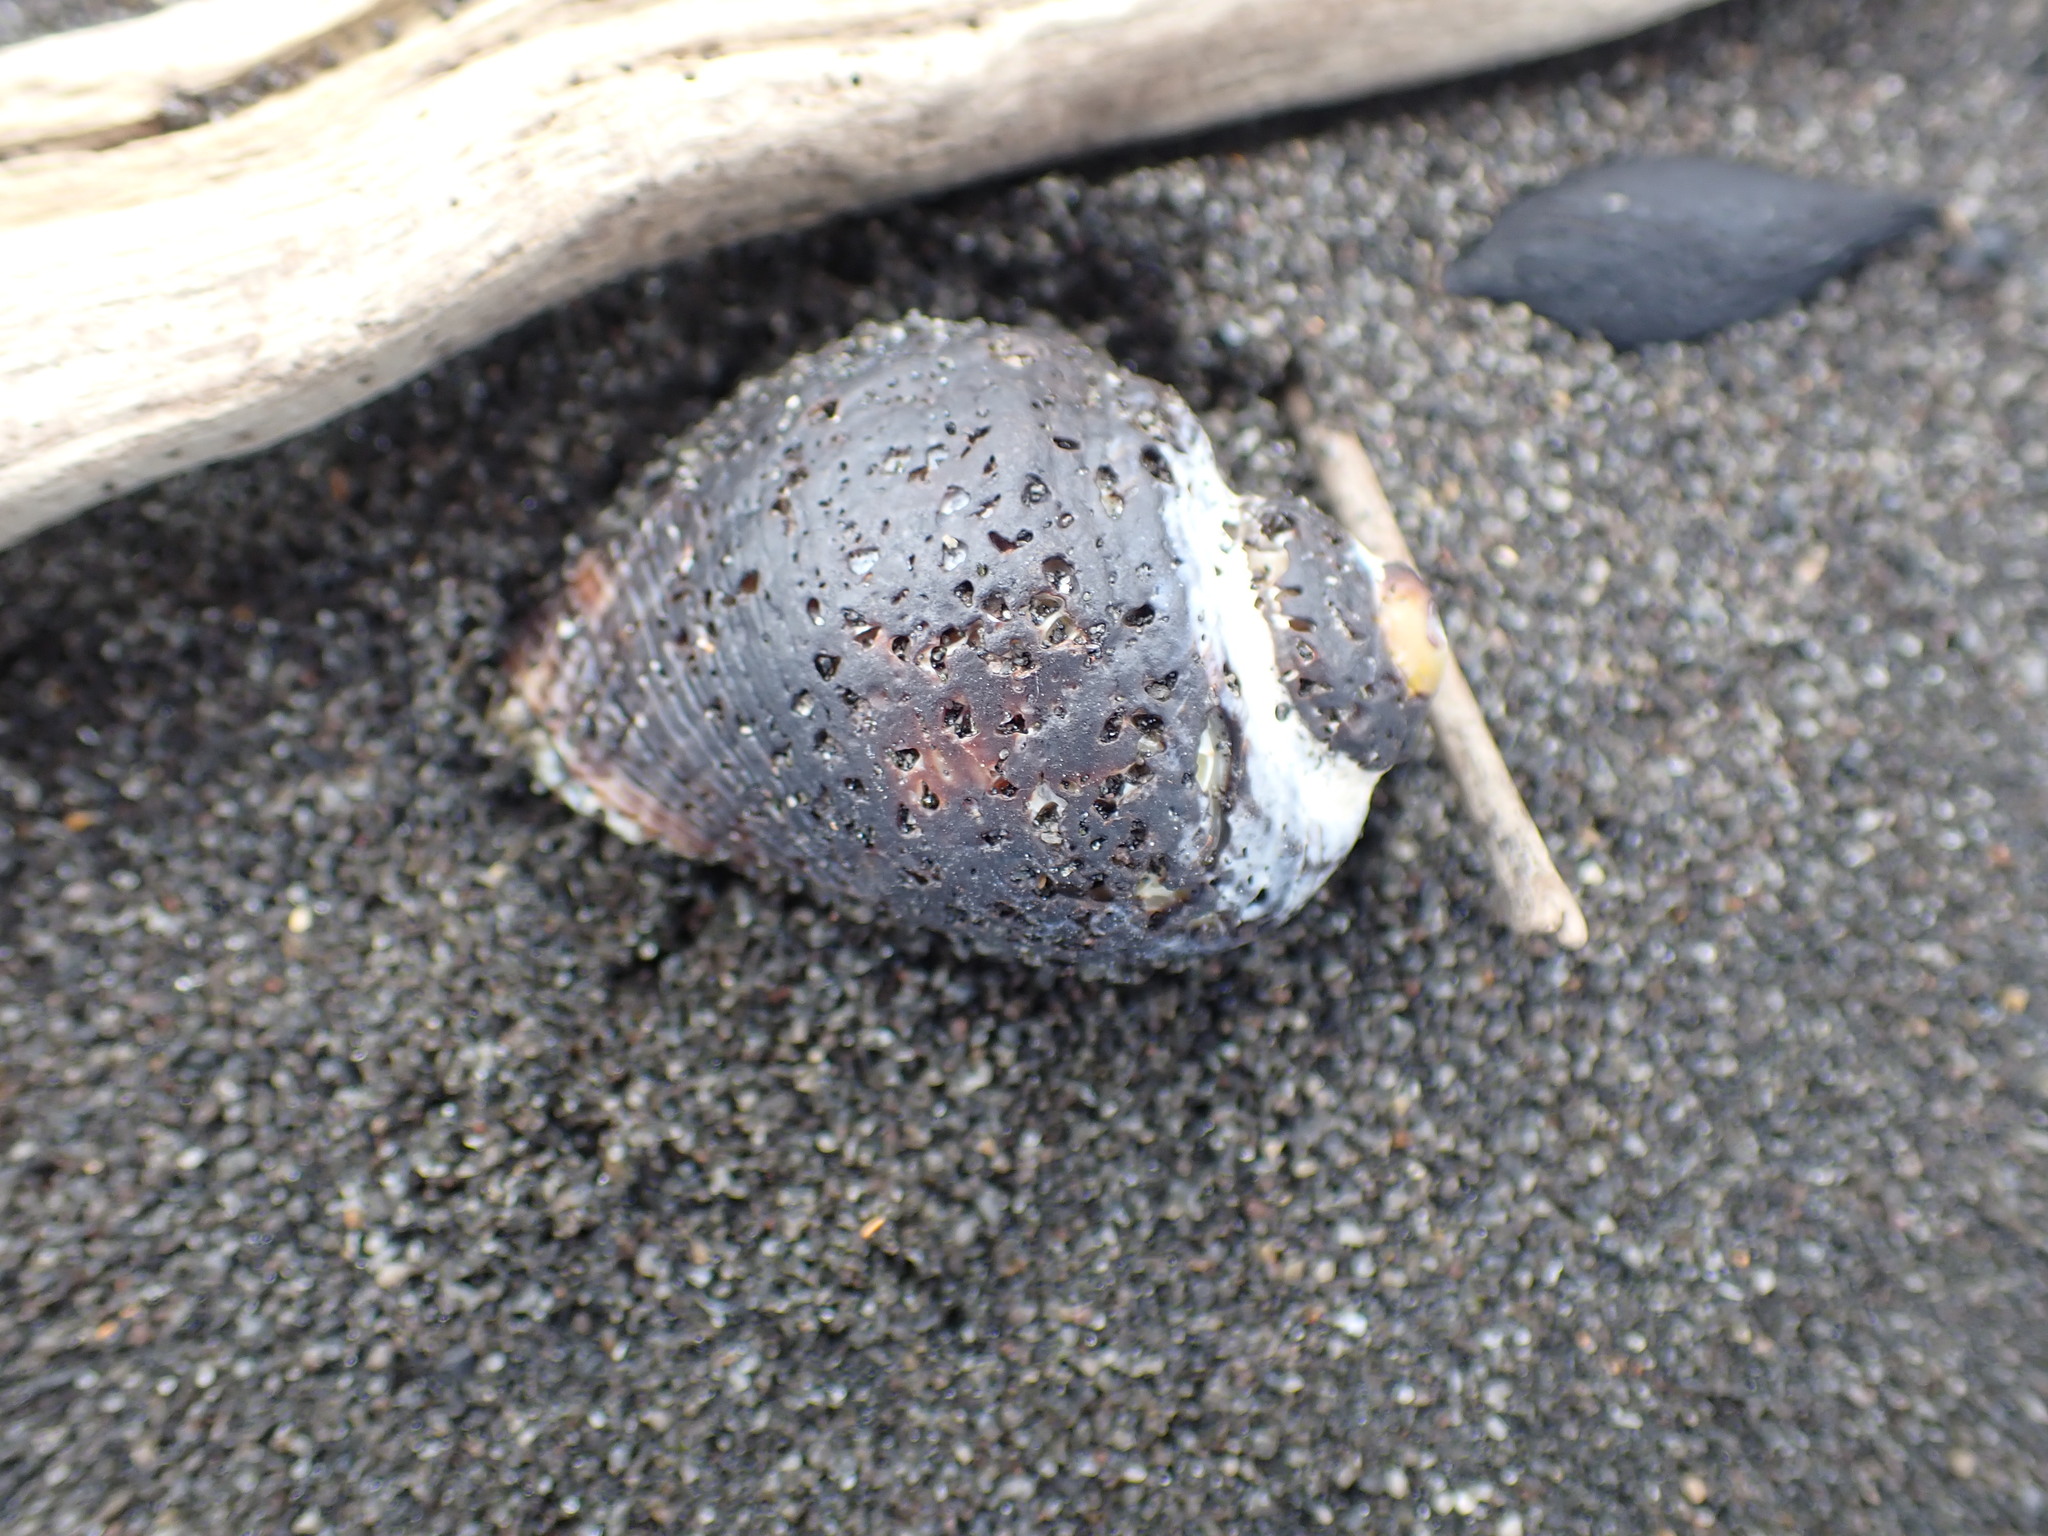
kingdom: Animalia
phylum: Mollusca
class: Gastropoda
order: Neogastropoda
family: Muricidae
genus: Haustrum
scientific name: Haustrum haustorium
